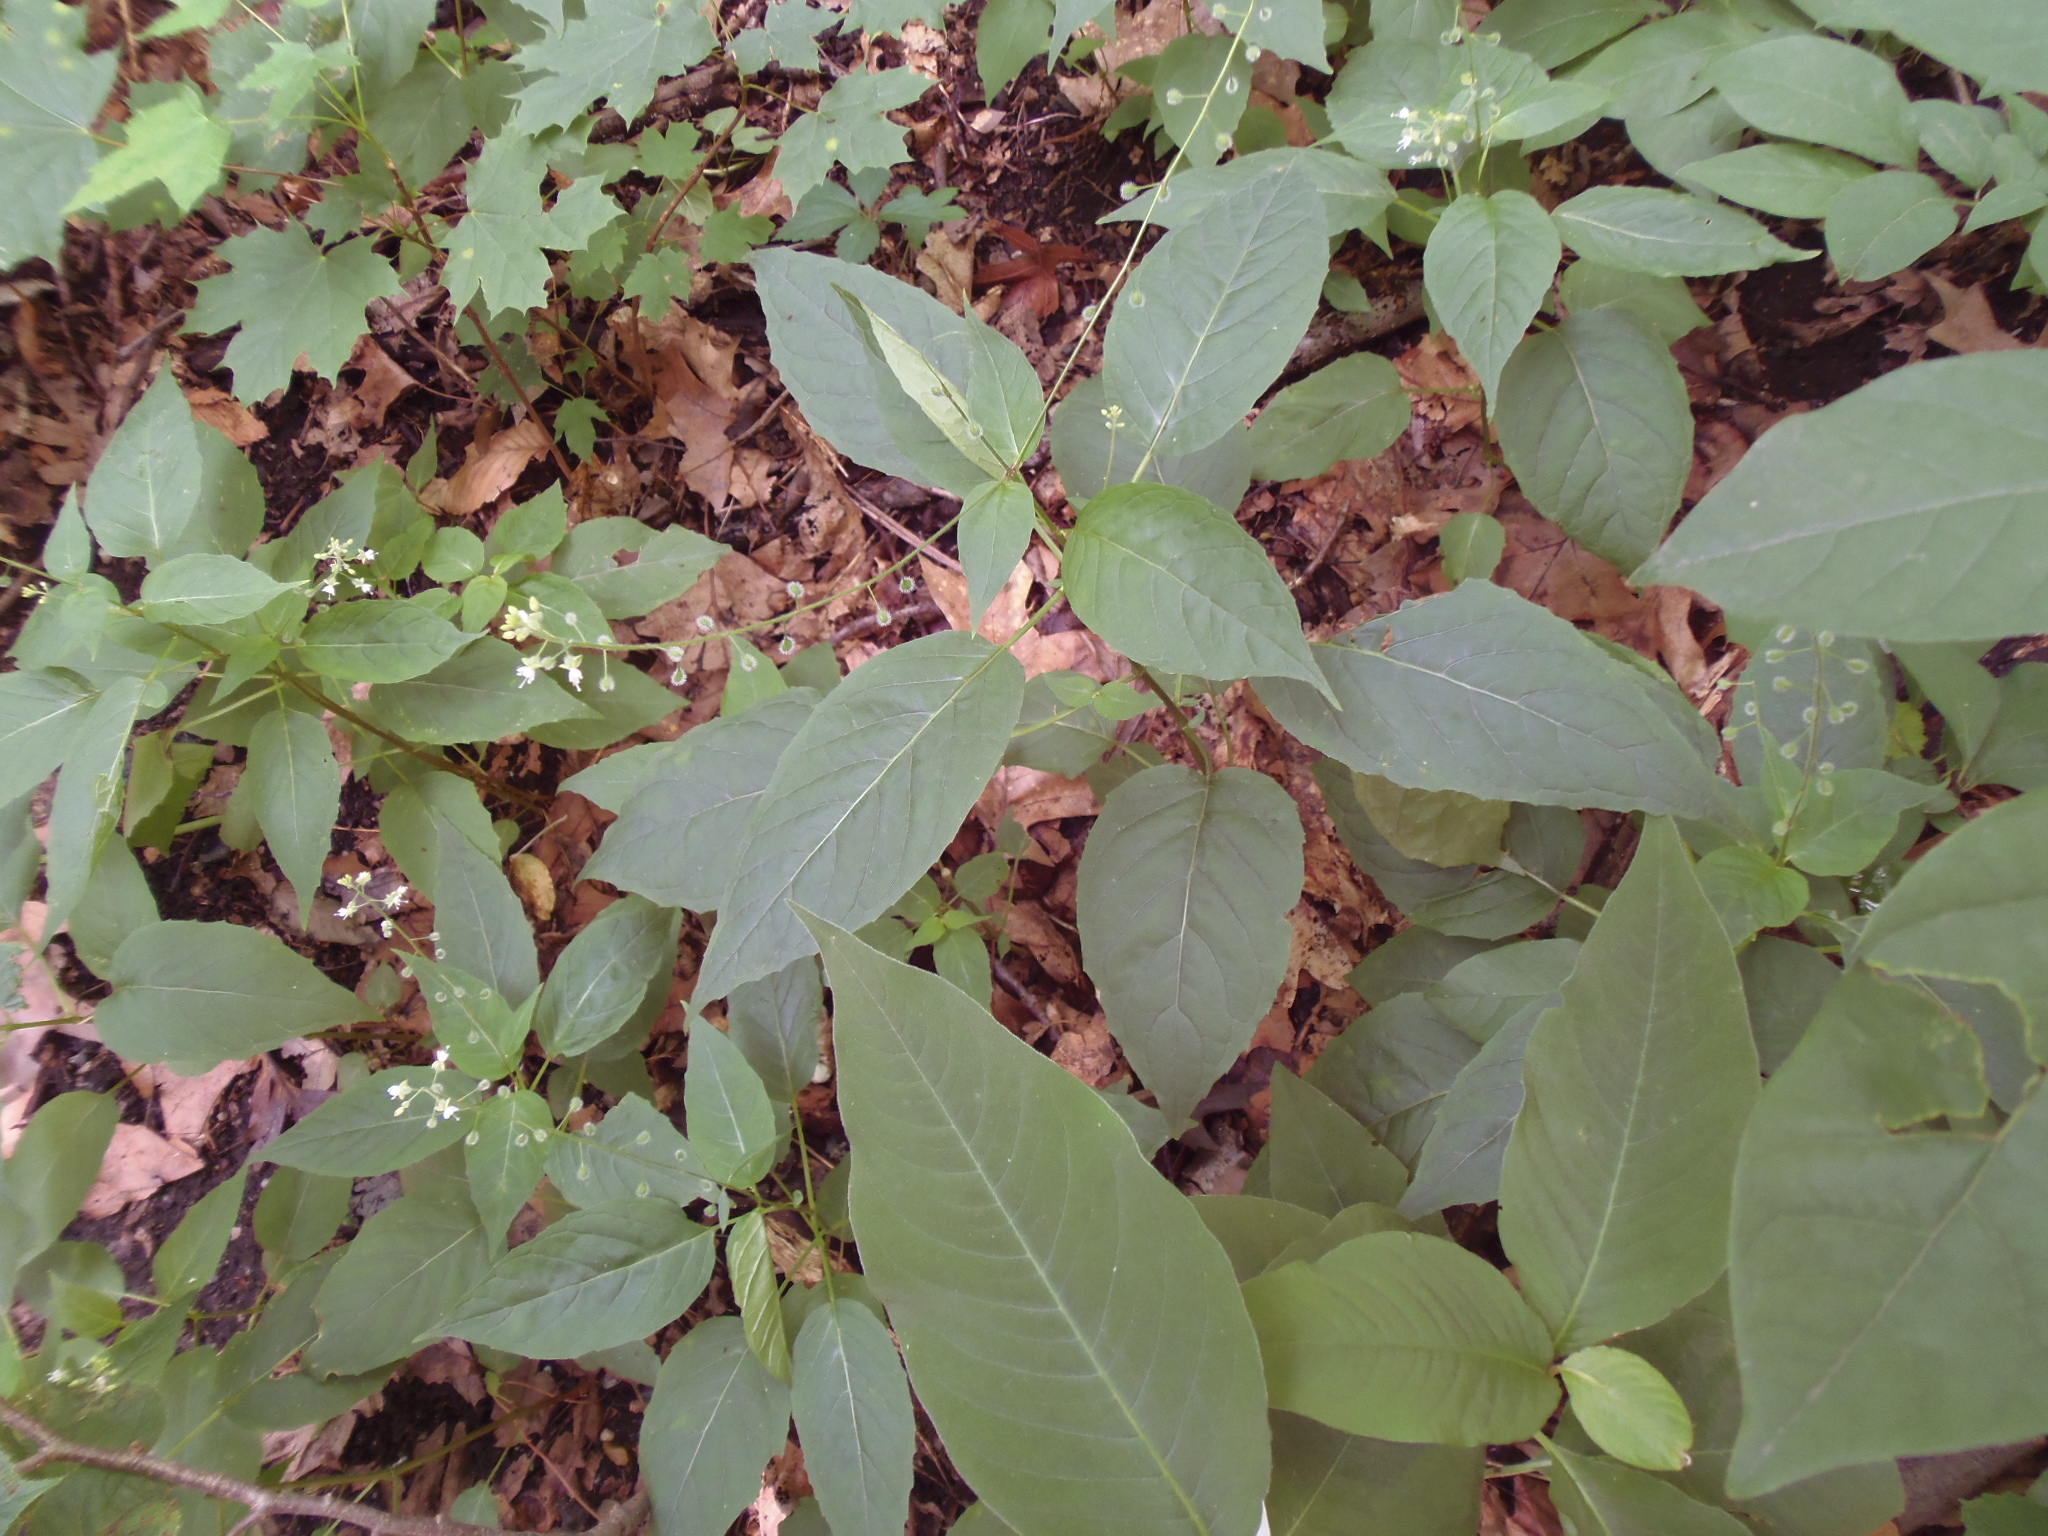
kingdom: Plantae
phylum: Tracheophyta
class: Magnoliopsida
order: Myrtales
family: Onagraceae
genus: Circaea
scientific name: Circaea canadensis
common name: Broad-leaved enchanter's nightshade
